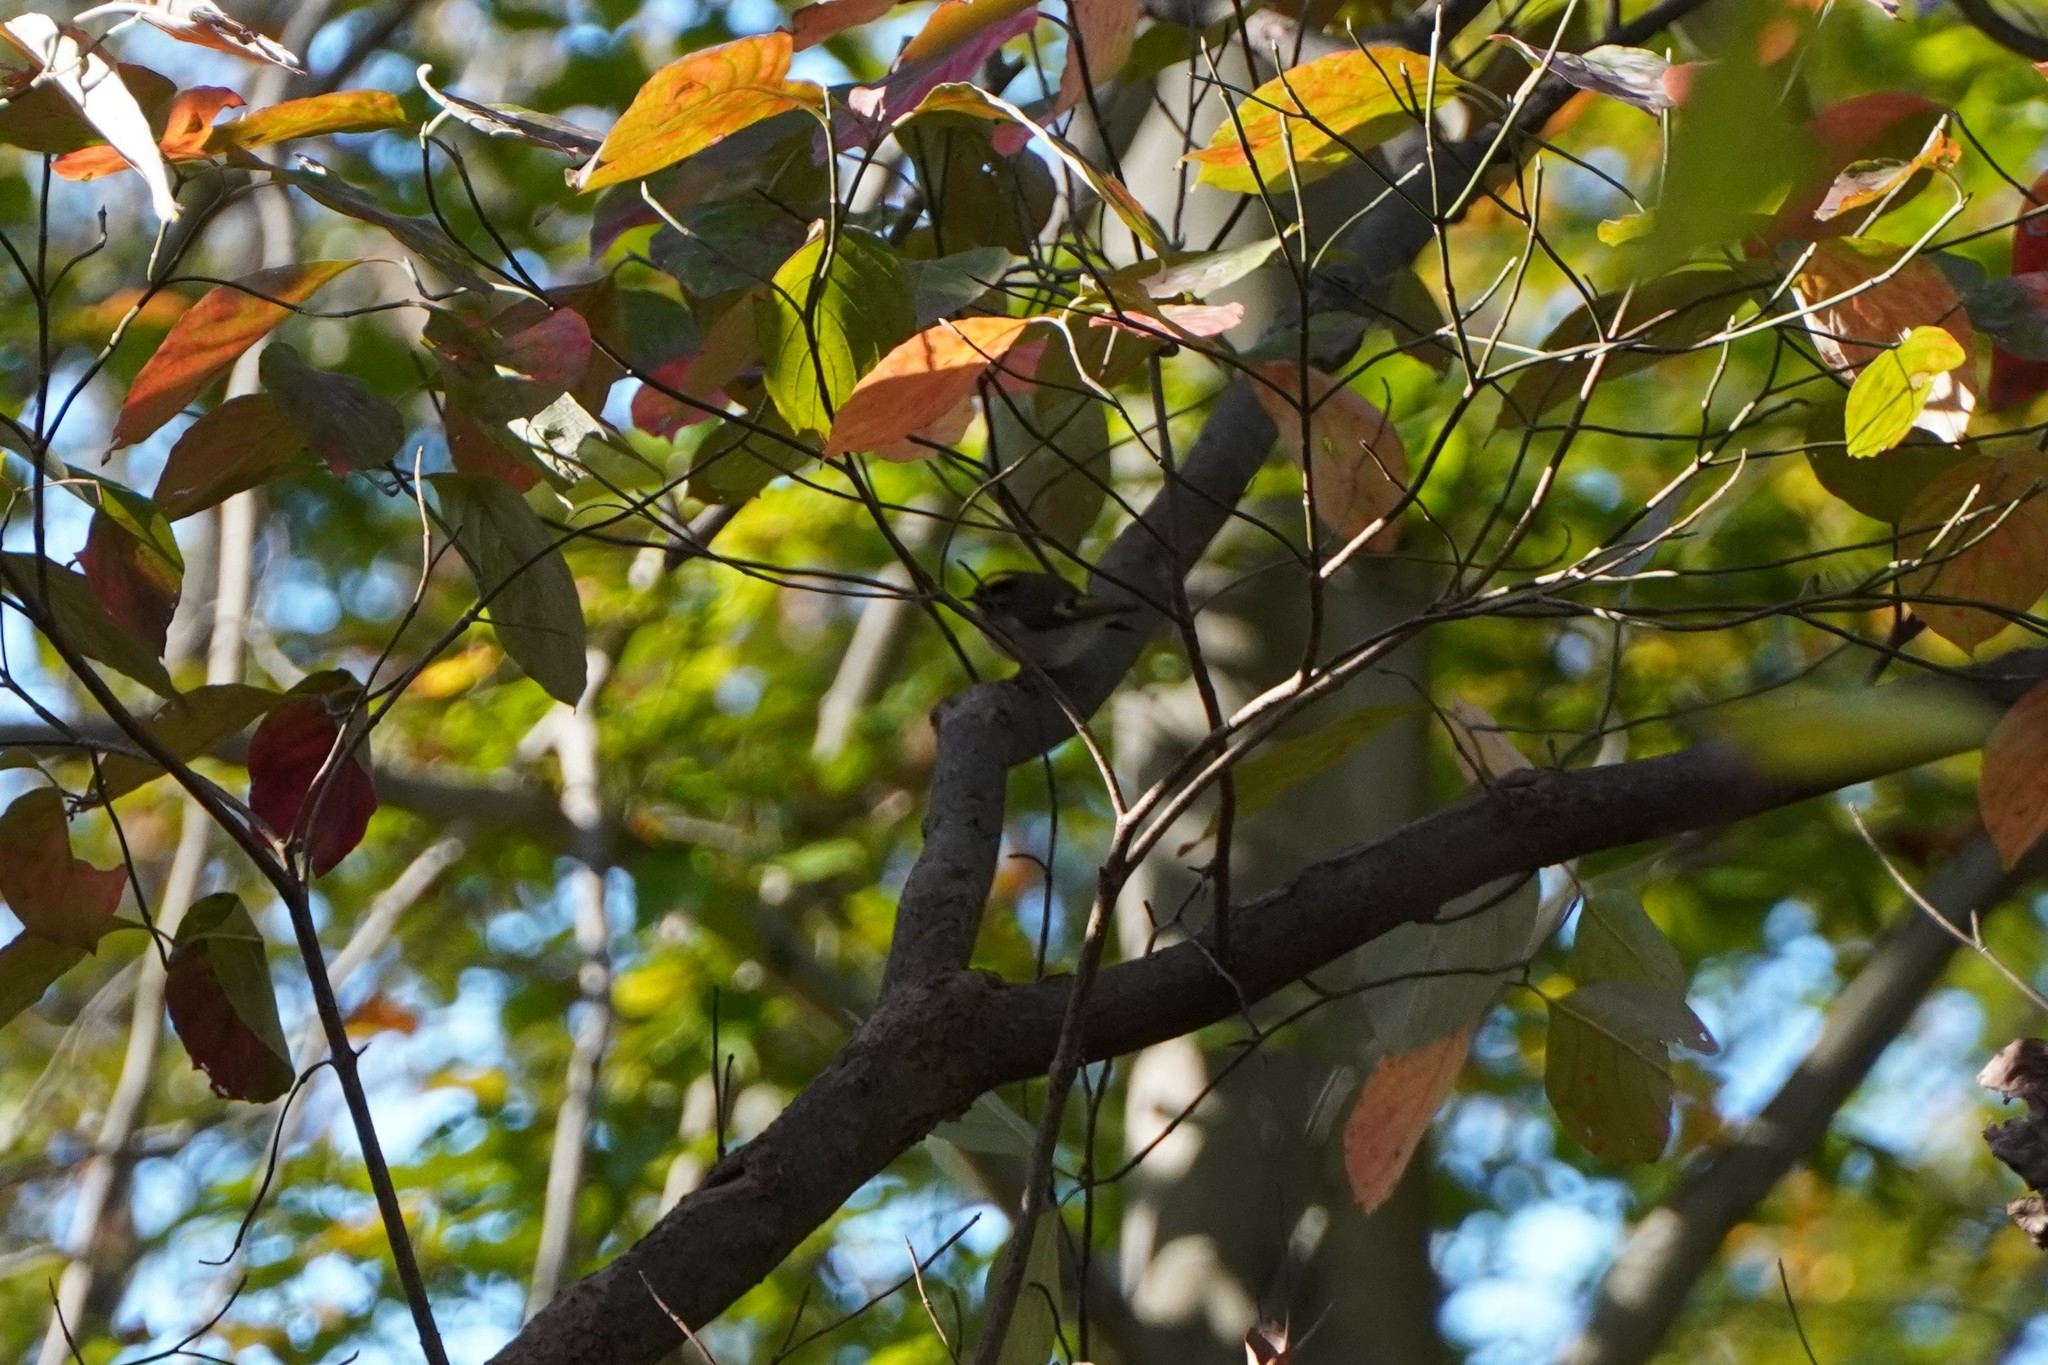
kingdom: Animalia
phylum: Chordata
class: Aves
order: Passeriformes
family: Regulidae
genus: Regulus
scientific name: Regulus satrapa
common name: Golden-crowned kinglet
